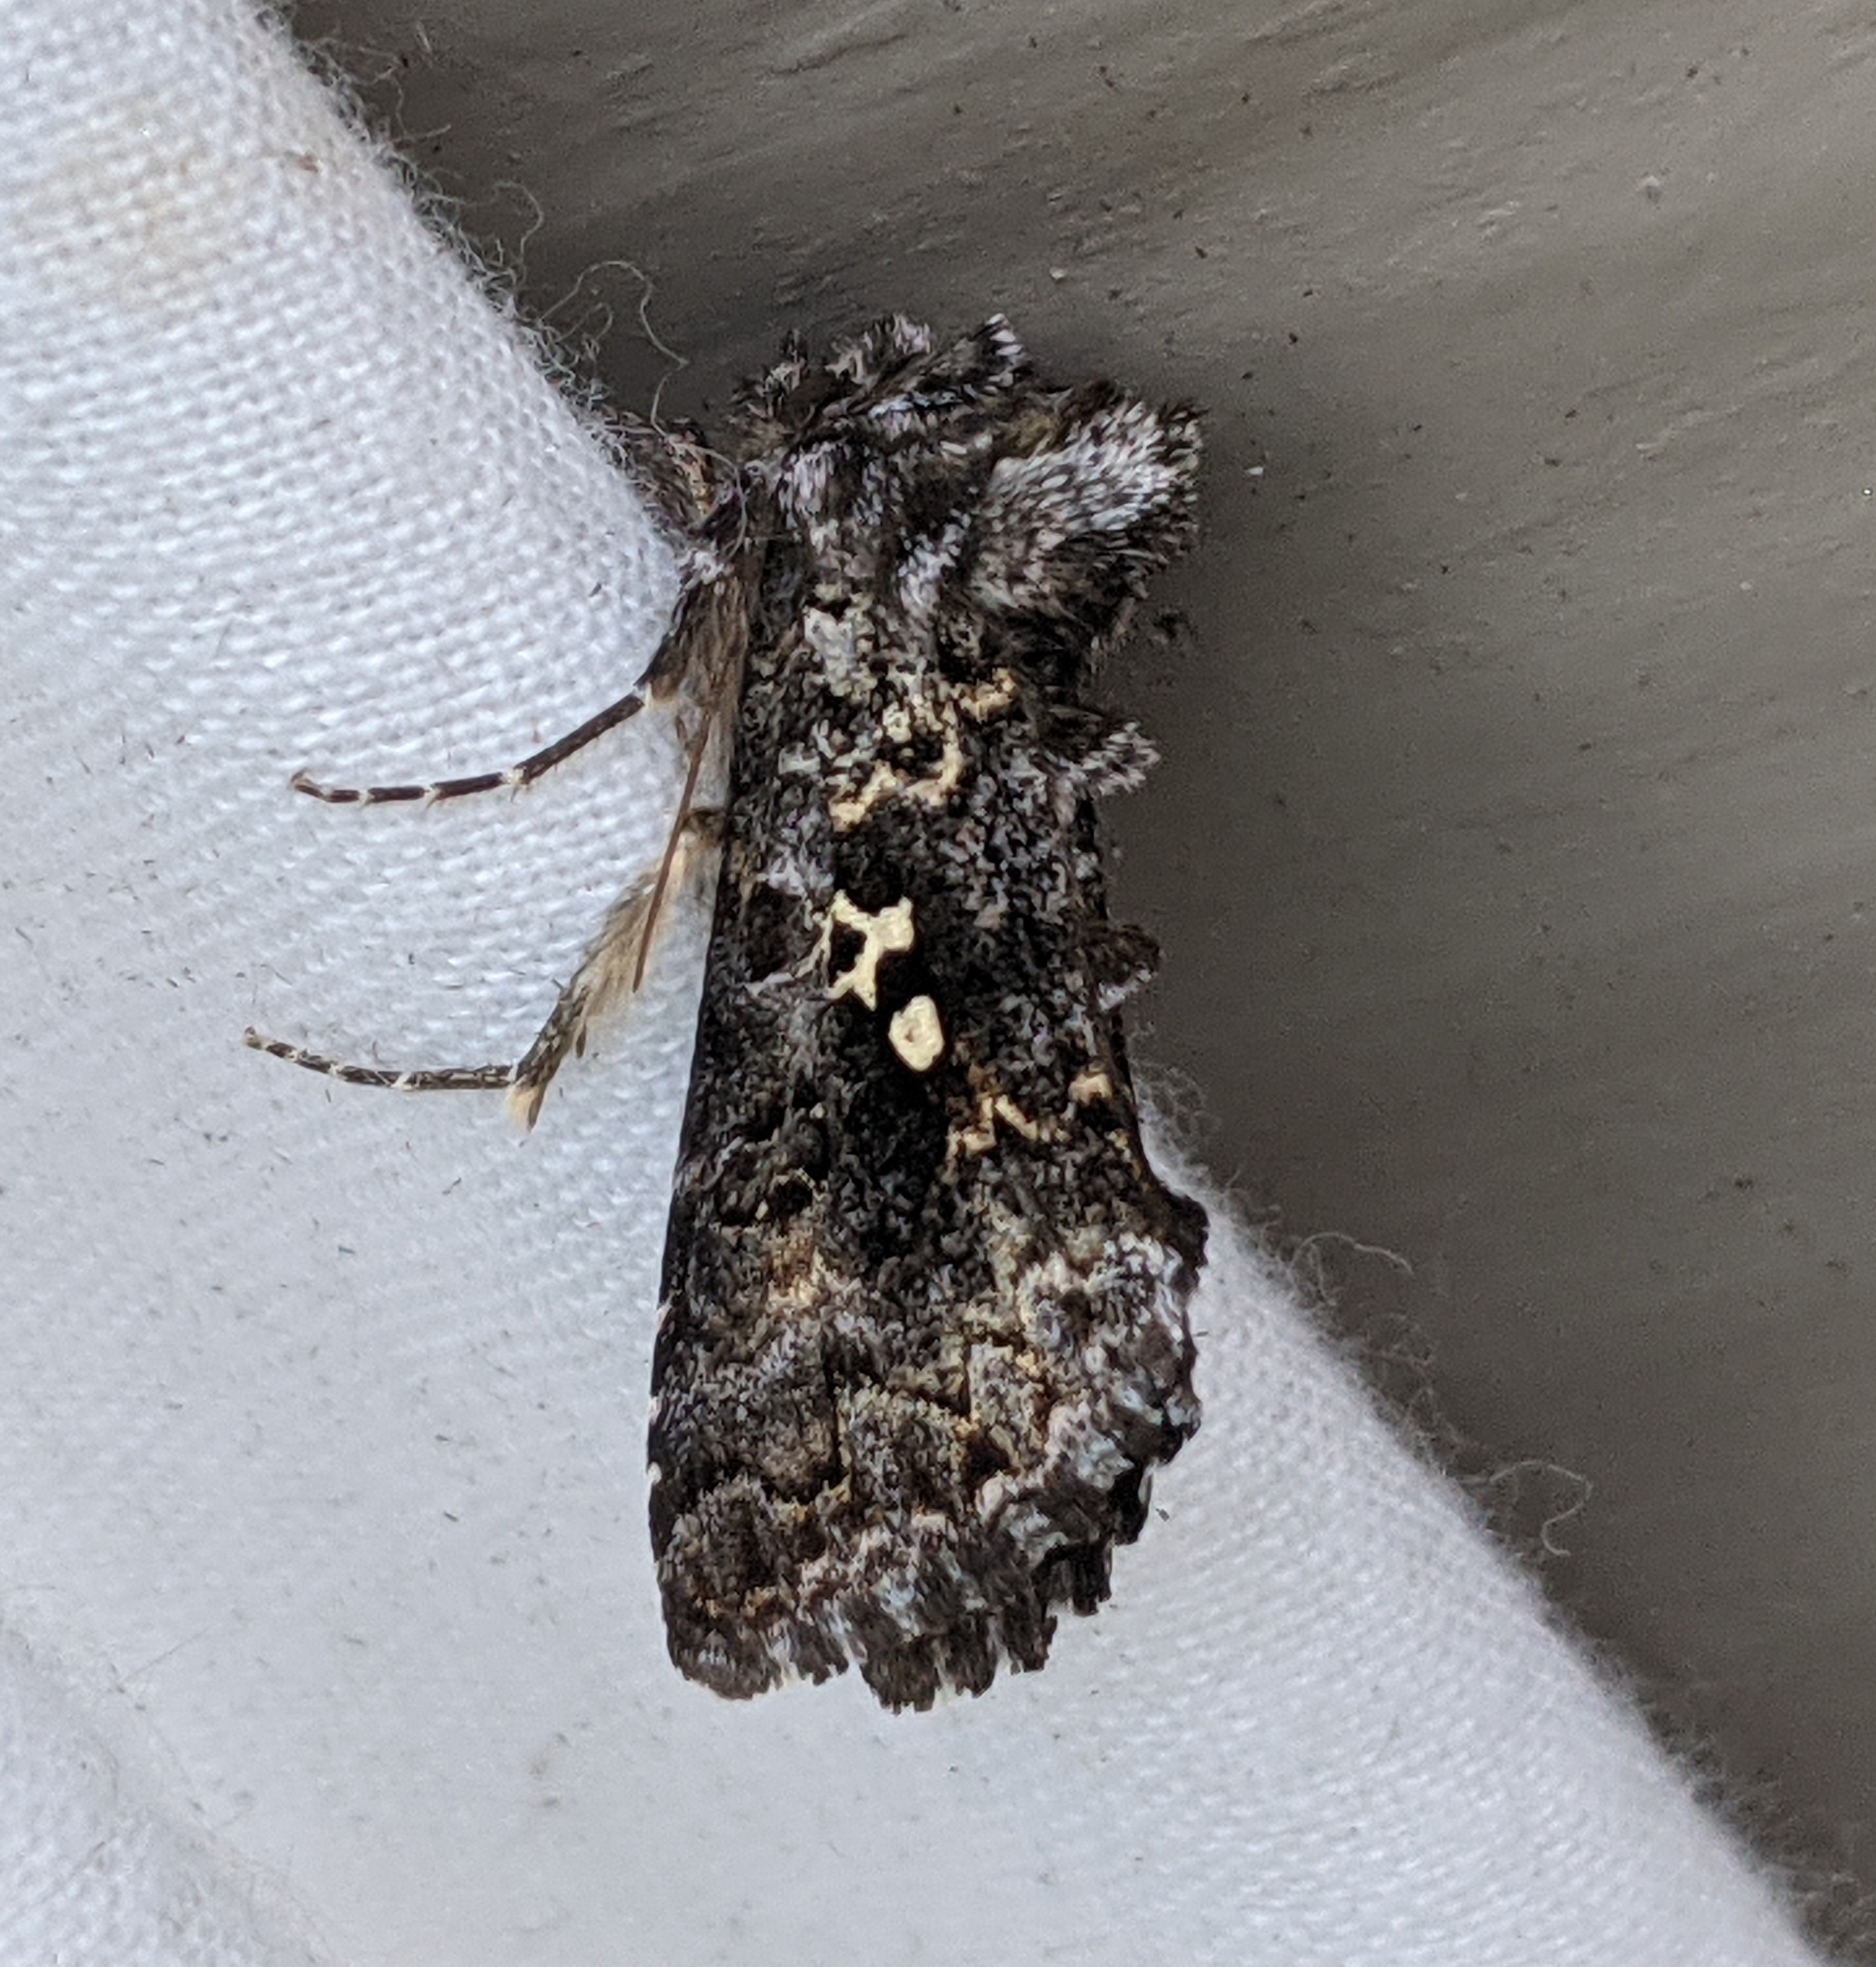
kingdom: Animalia
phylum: Arthropoda
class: Insecta
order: Lepidoptera
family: Noctuidae
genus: Syngrapha
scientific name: Syngrapha abstrusa
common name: Abstruse false looper moth
